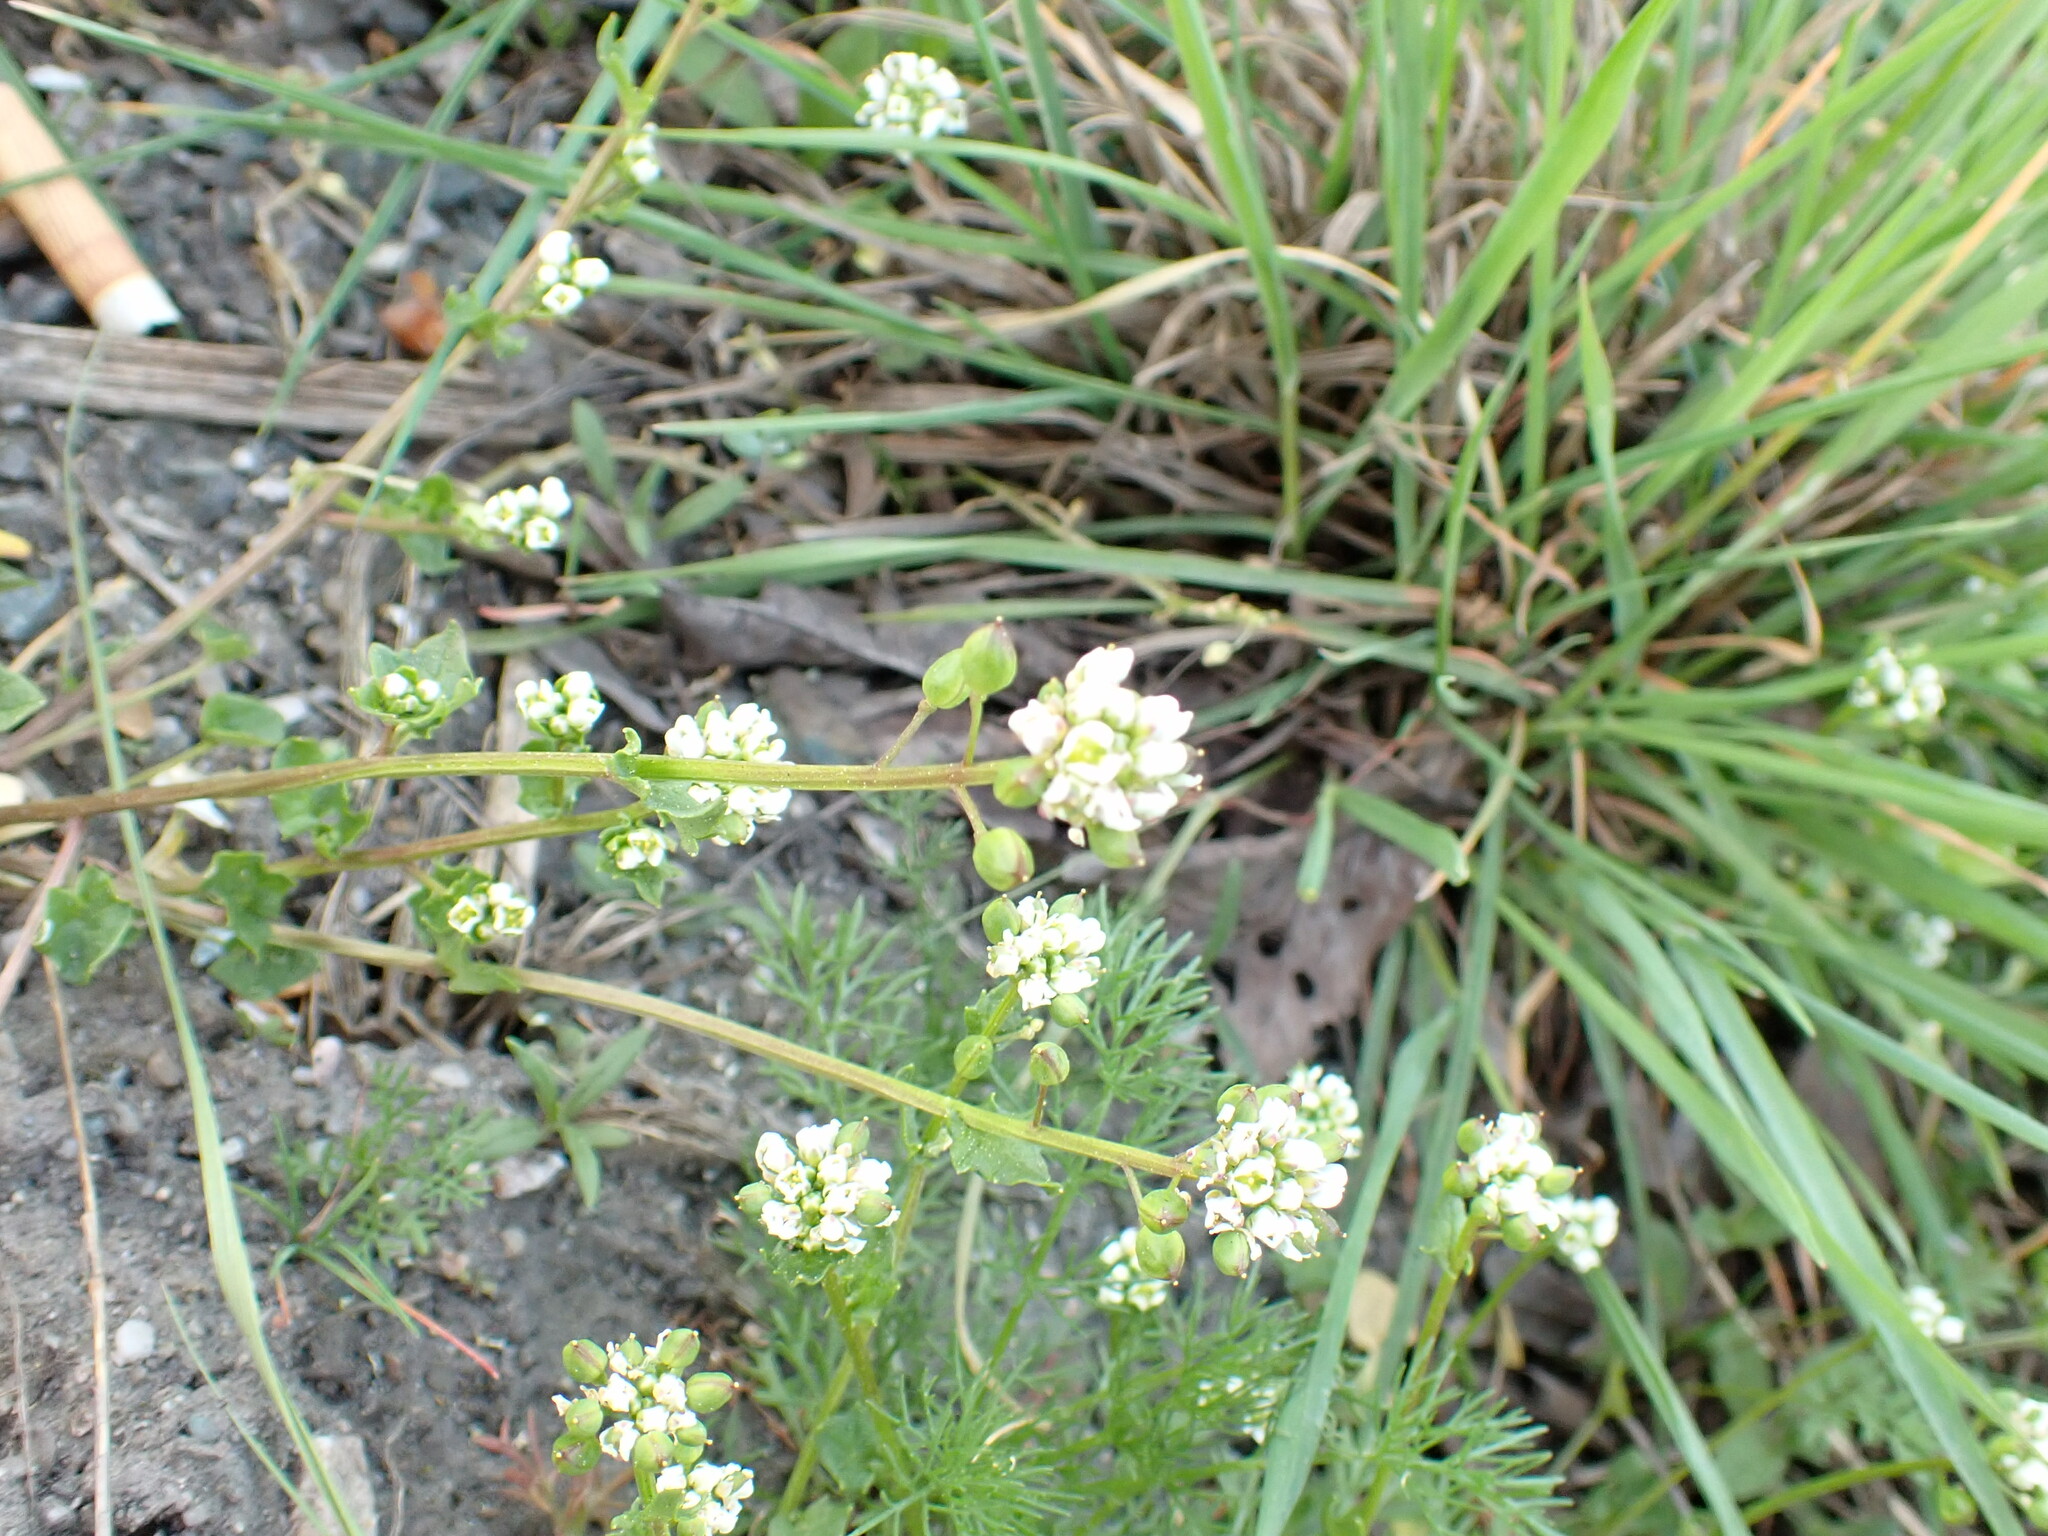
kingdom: Plantae
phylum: Tracheophyta
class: Magnoliopsida
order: Brassicales
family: Brassicaceae
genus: Cochlearia
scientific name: Cochlearia danica
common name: Early scurvygrass
